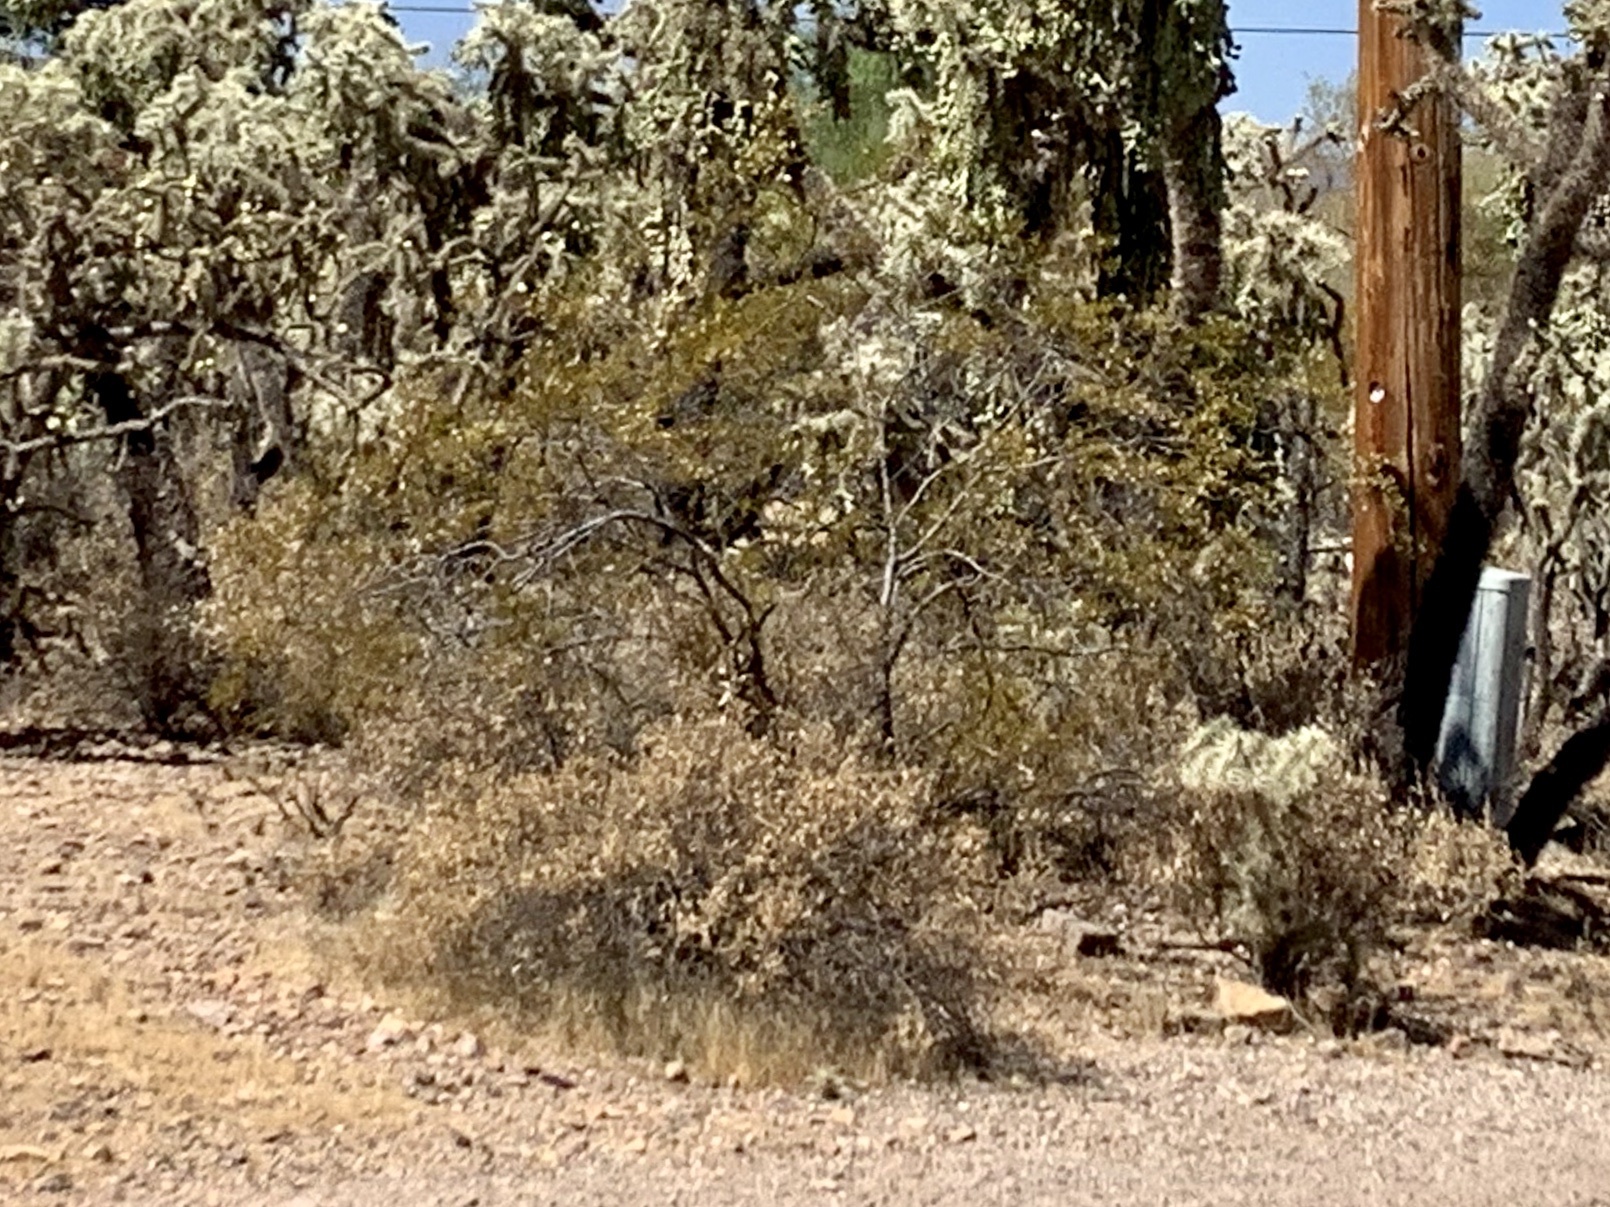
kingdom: Plantae
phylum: Tracheophyta
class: Magnoliopsida
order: Zygophyllales
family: Zygophyllaceae
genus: Larrea
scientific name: Larrea tridentata
